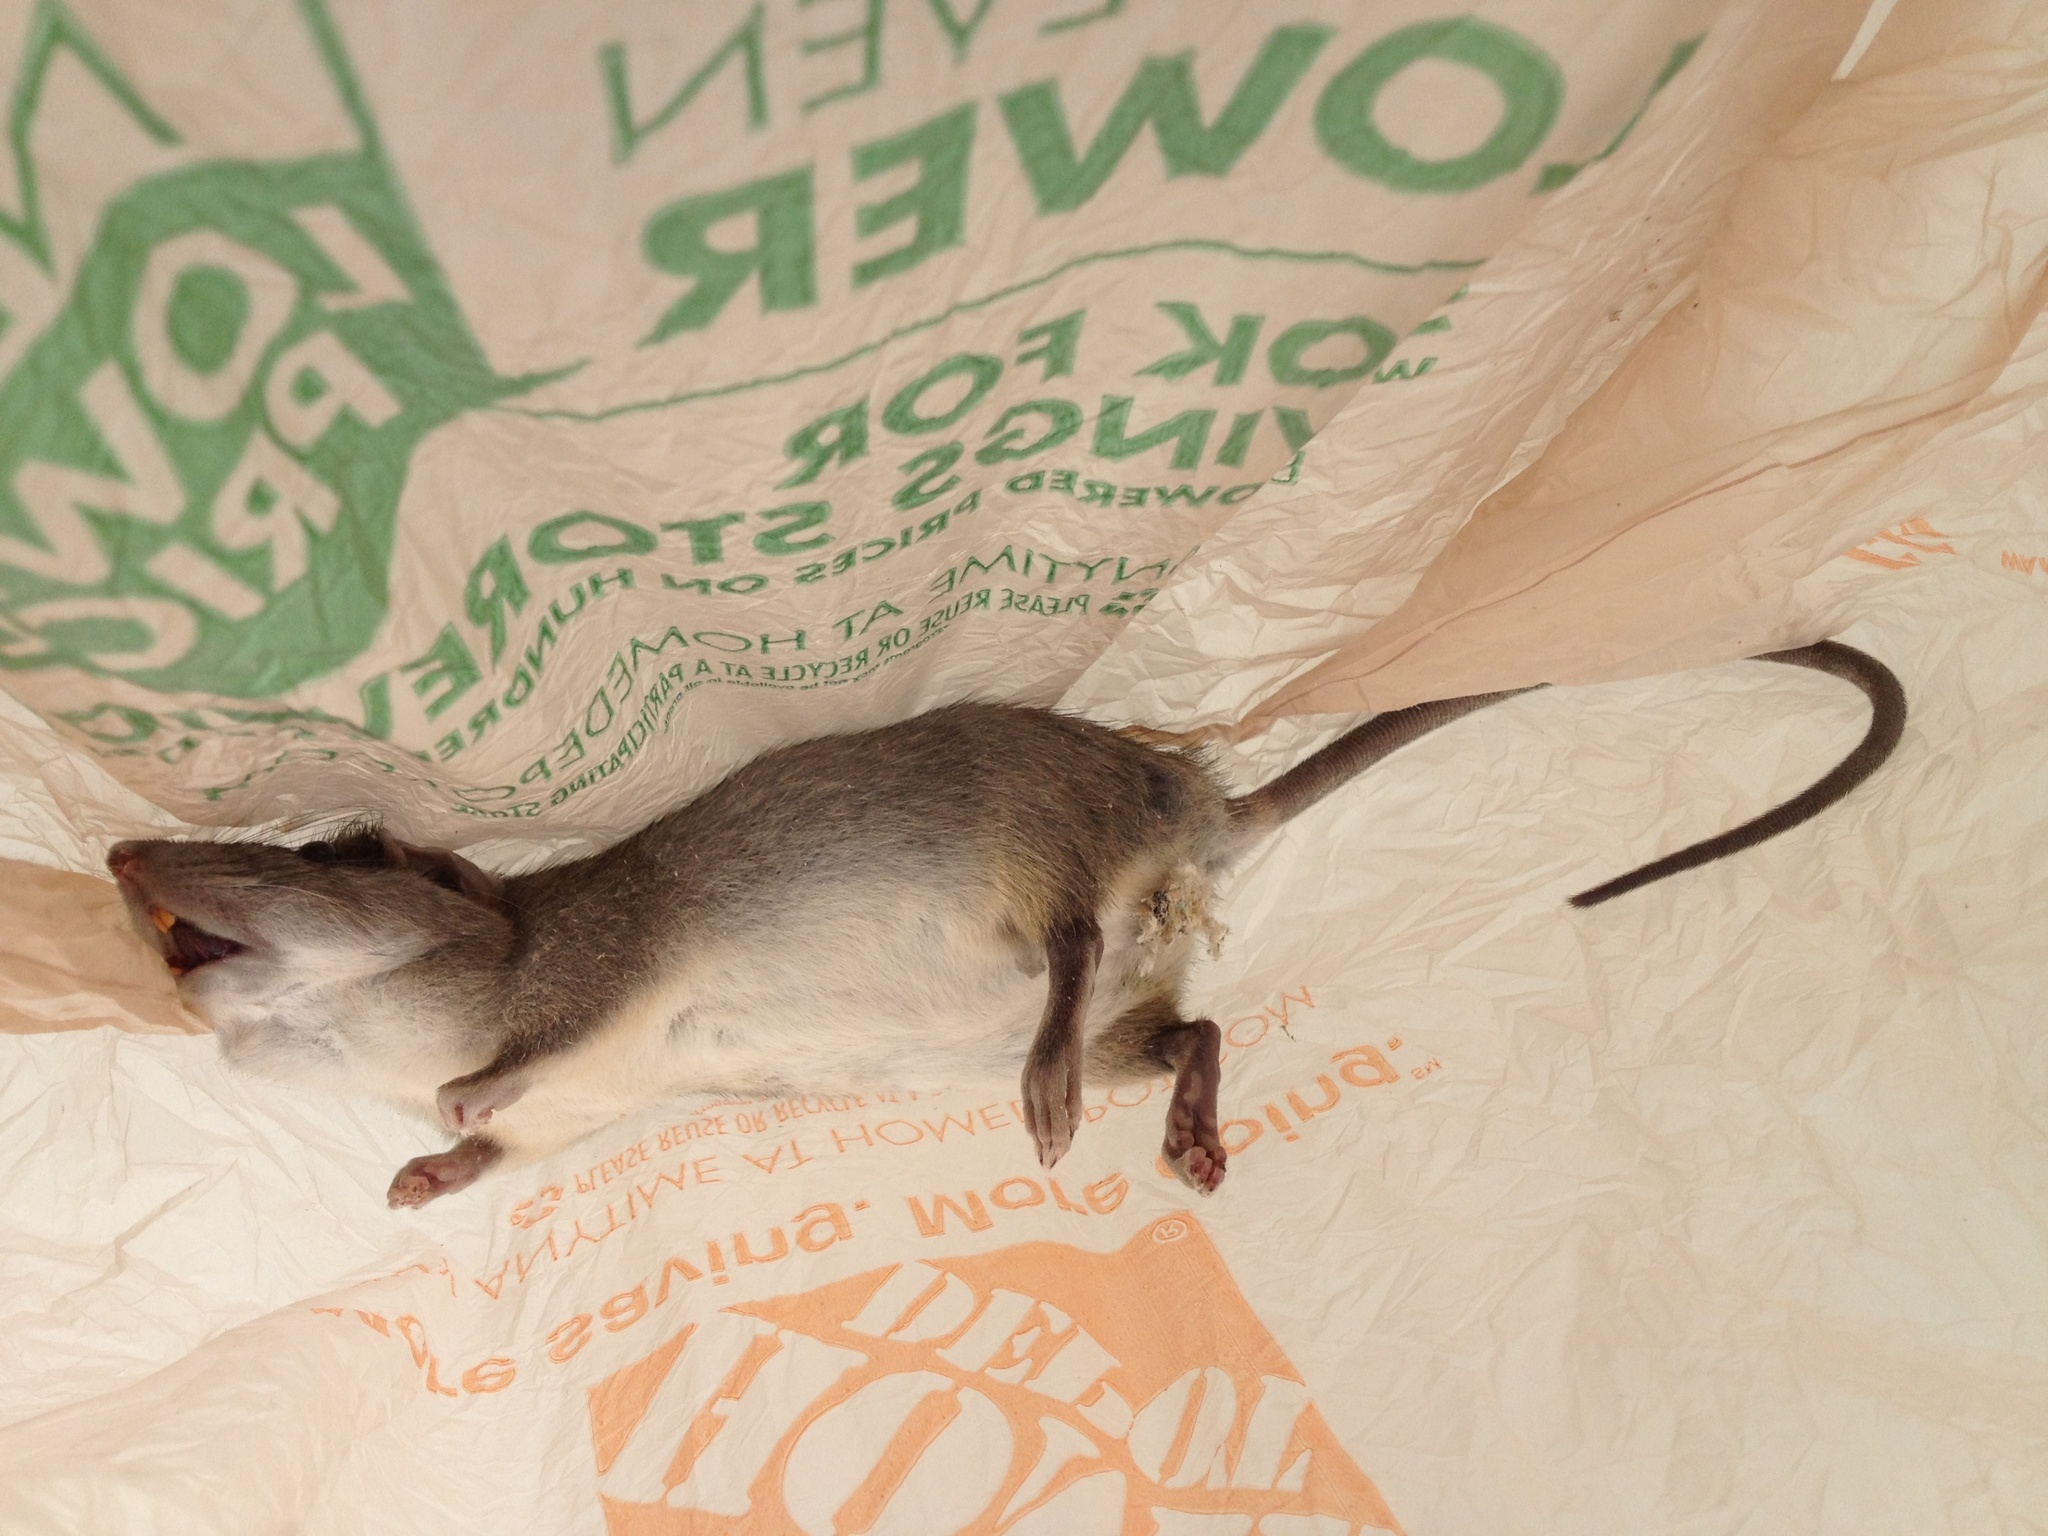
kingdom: Animalia
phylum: Chordata
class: Mammalia
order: Rodentia
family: Muridae
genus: Rattus
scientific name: Rattus rattus
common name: Black rat
